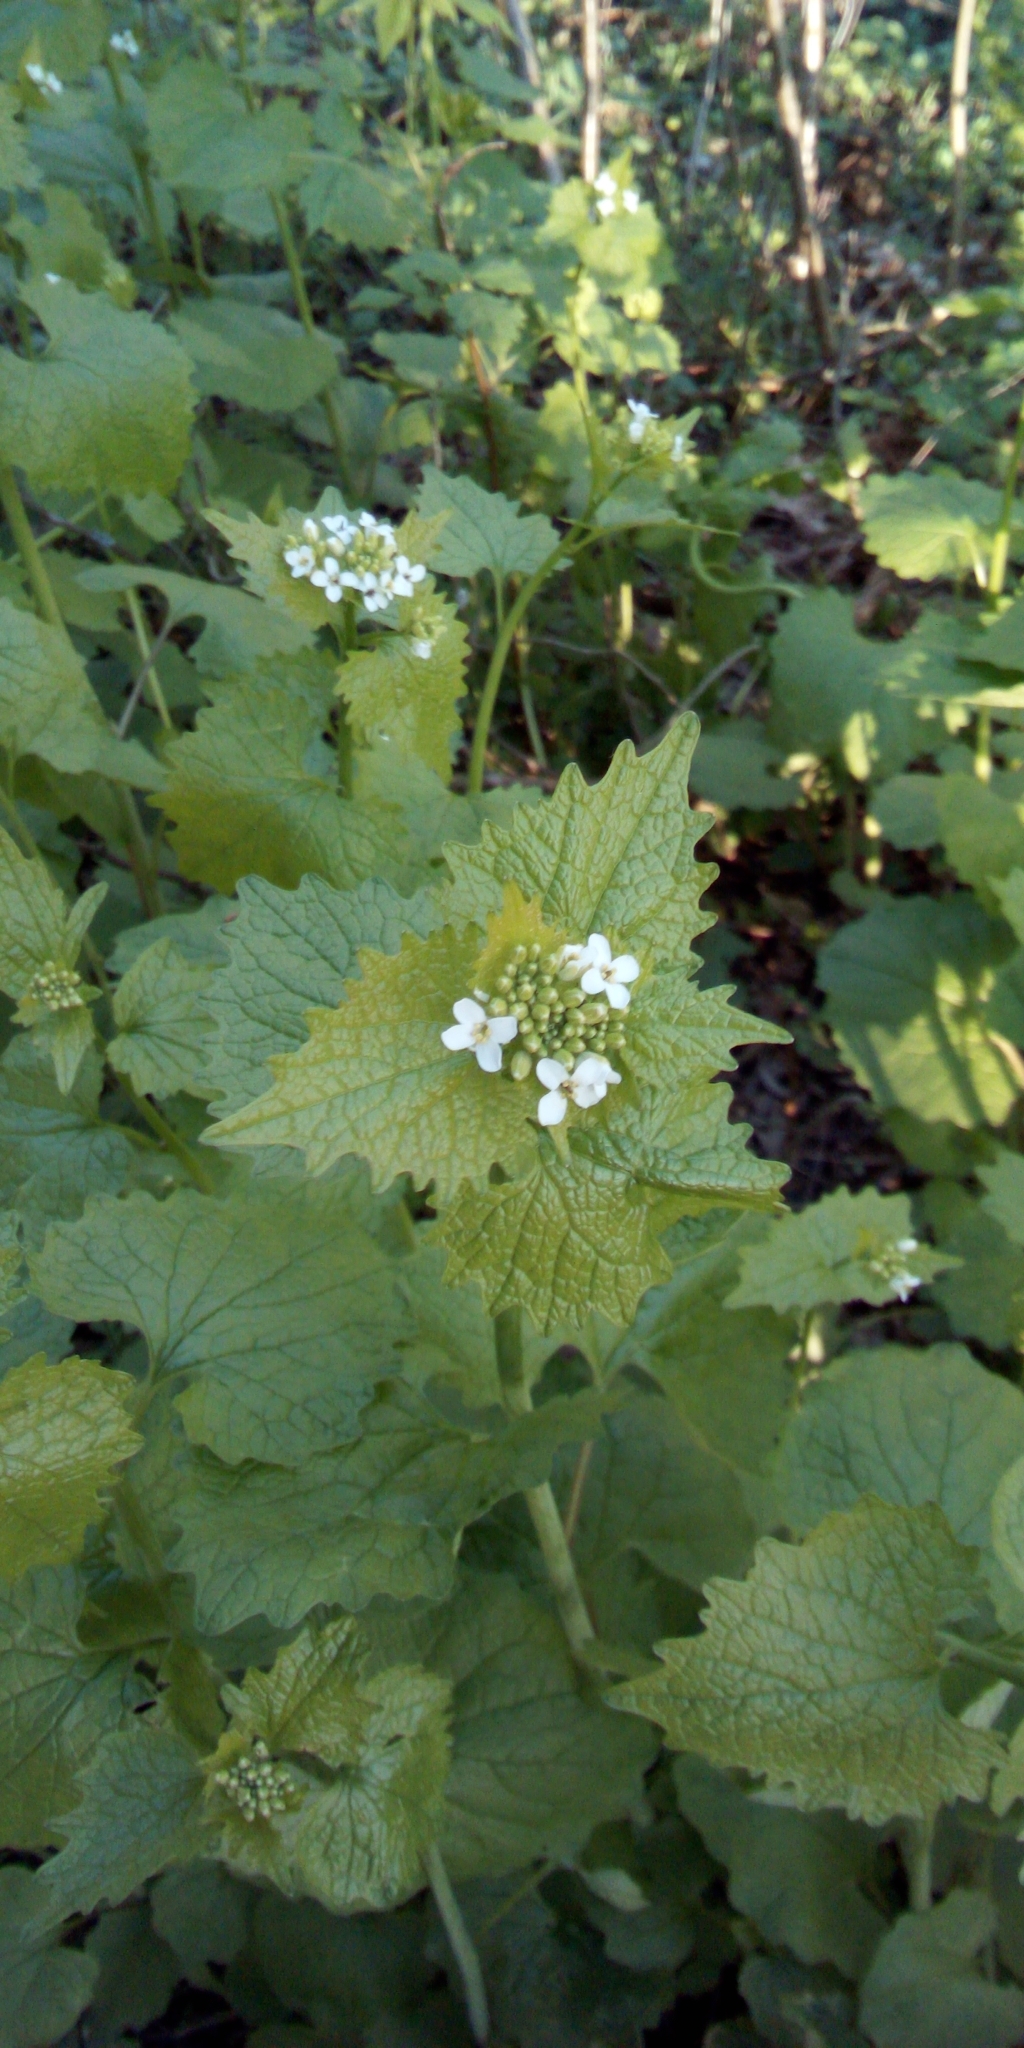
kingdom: Plantae
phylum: Tracheophyta
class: Magnoliopsida
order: Brassicales
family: Brassicaceae
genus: Alliaria
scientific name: Alliaria petiolata
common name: Garlic mustard
